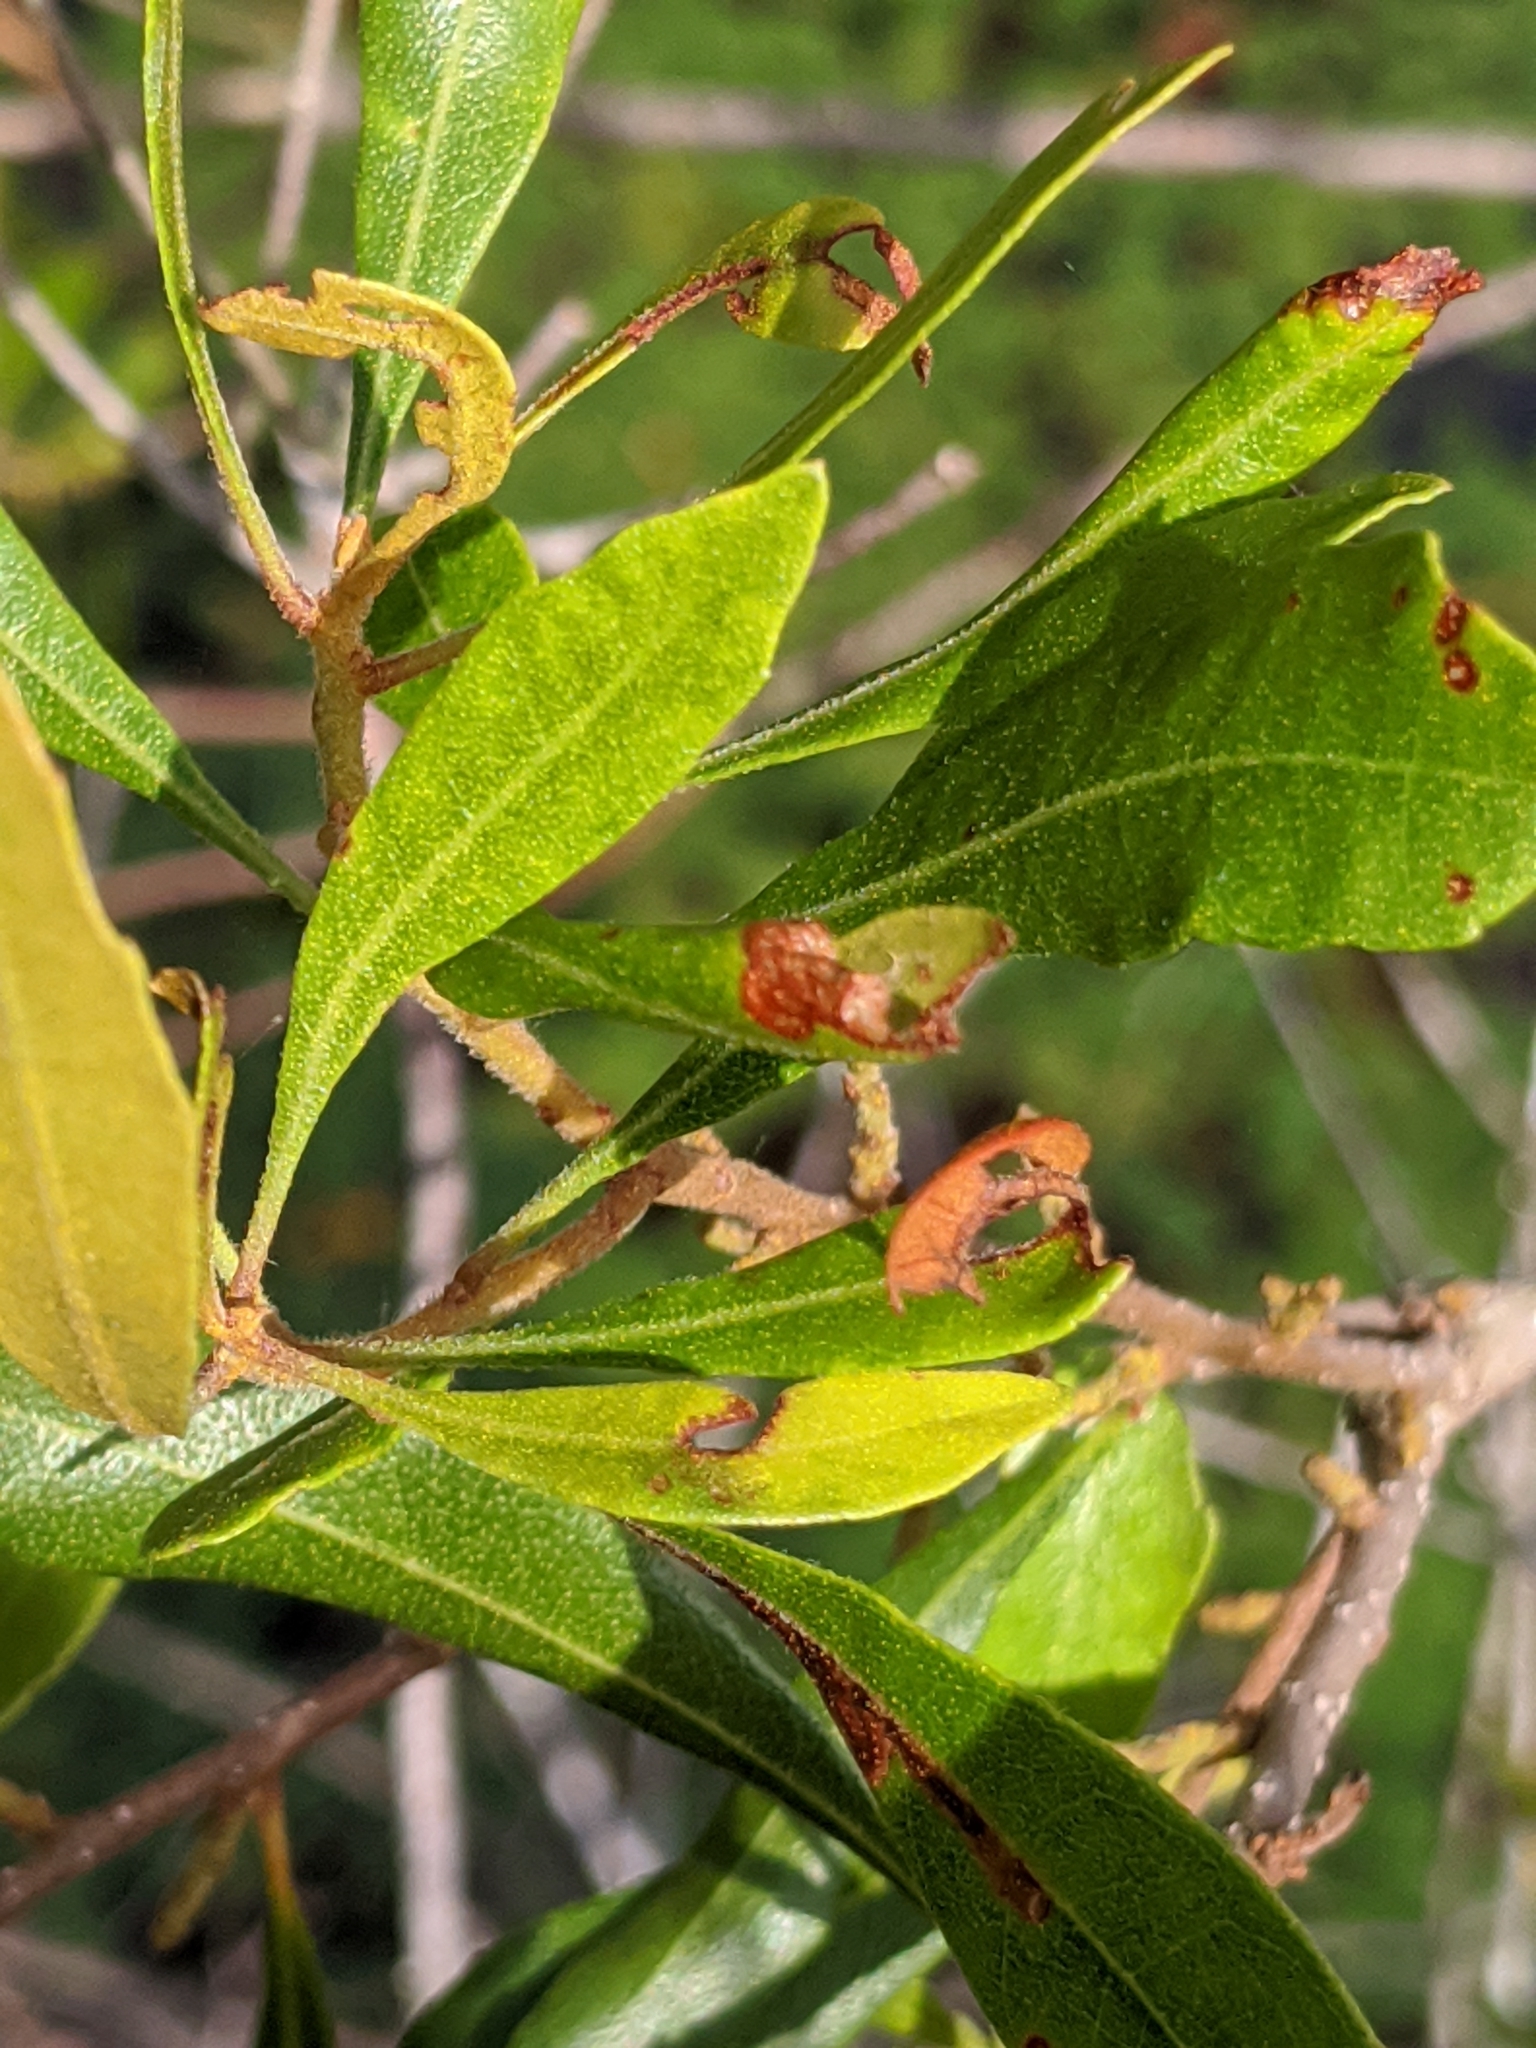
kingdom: Plantae
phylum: Tracheophyta
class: Magnoliopsida
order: Fagales
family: Myricaceae
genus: Morella
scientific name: Morella cerifera
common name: Wax myrtle
